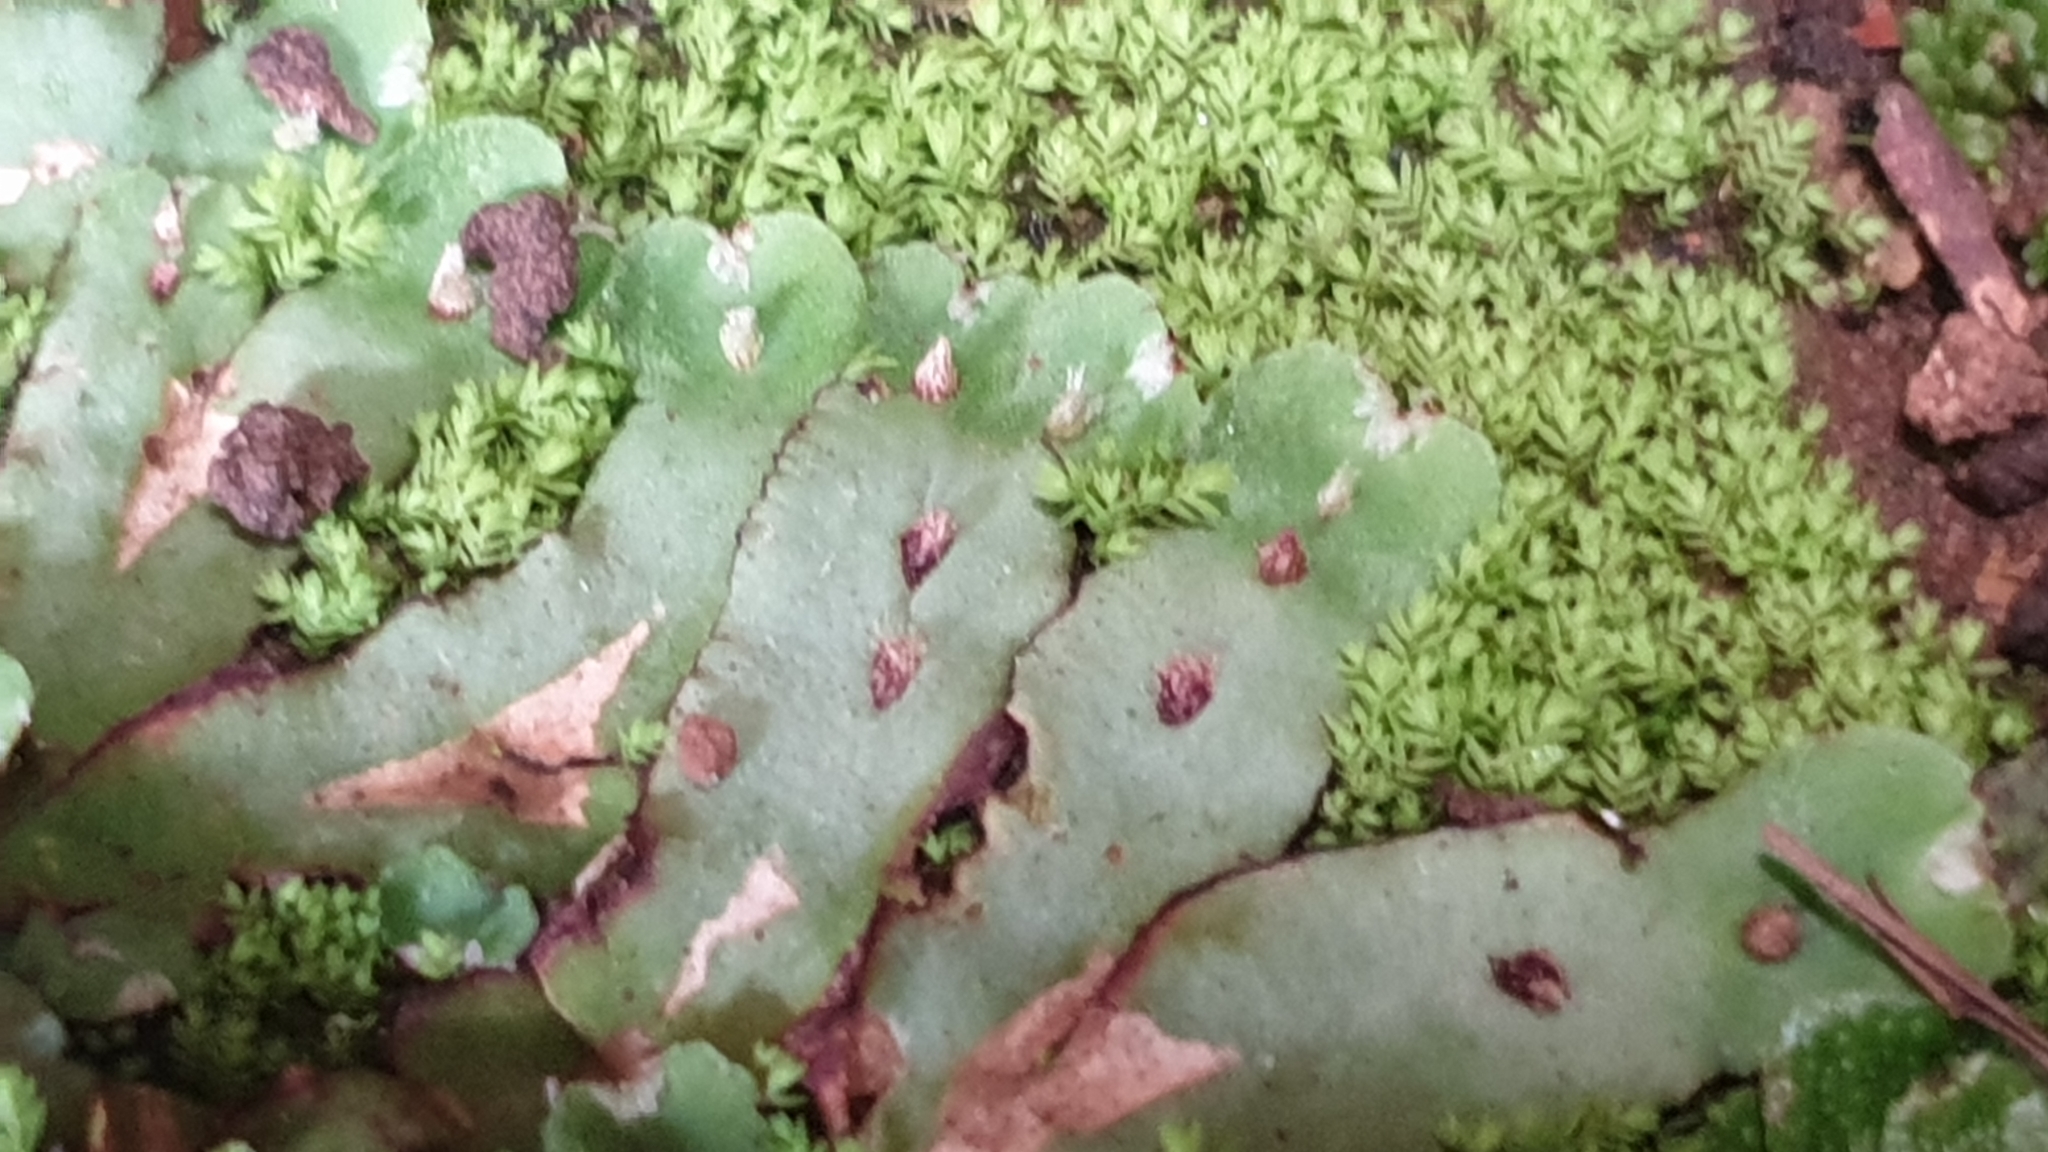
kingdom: Plantae
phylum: Marchantiophyta
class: Marchantiopsida
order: Marchantiales
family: Aytoniaceae
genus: Plagiochasma
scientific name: Plagiochasma rupestre
